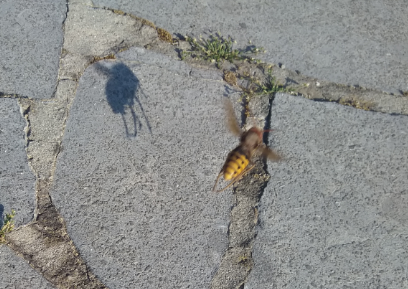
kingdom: Animalia
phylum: Arthropoda
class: Insecta
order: Hymenoptera
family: Vespidae
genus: Vespa
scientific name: Vespa crabro
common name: Hornet
